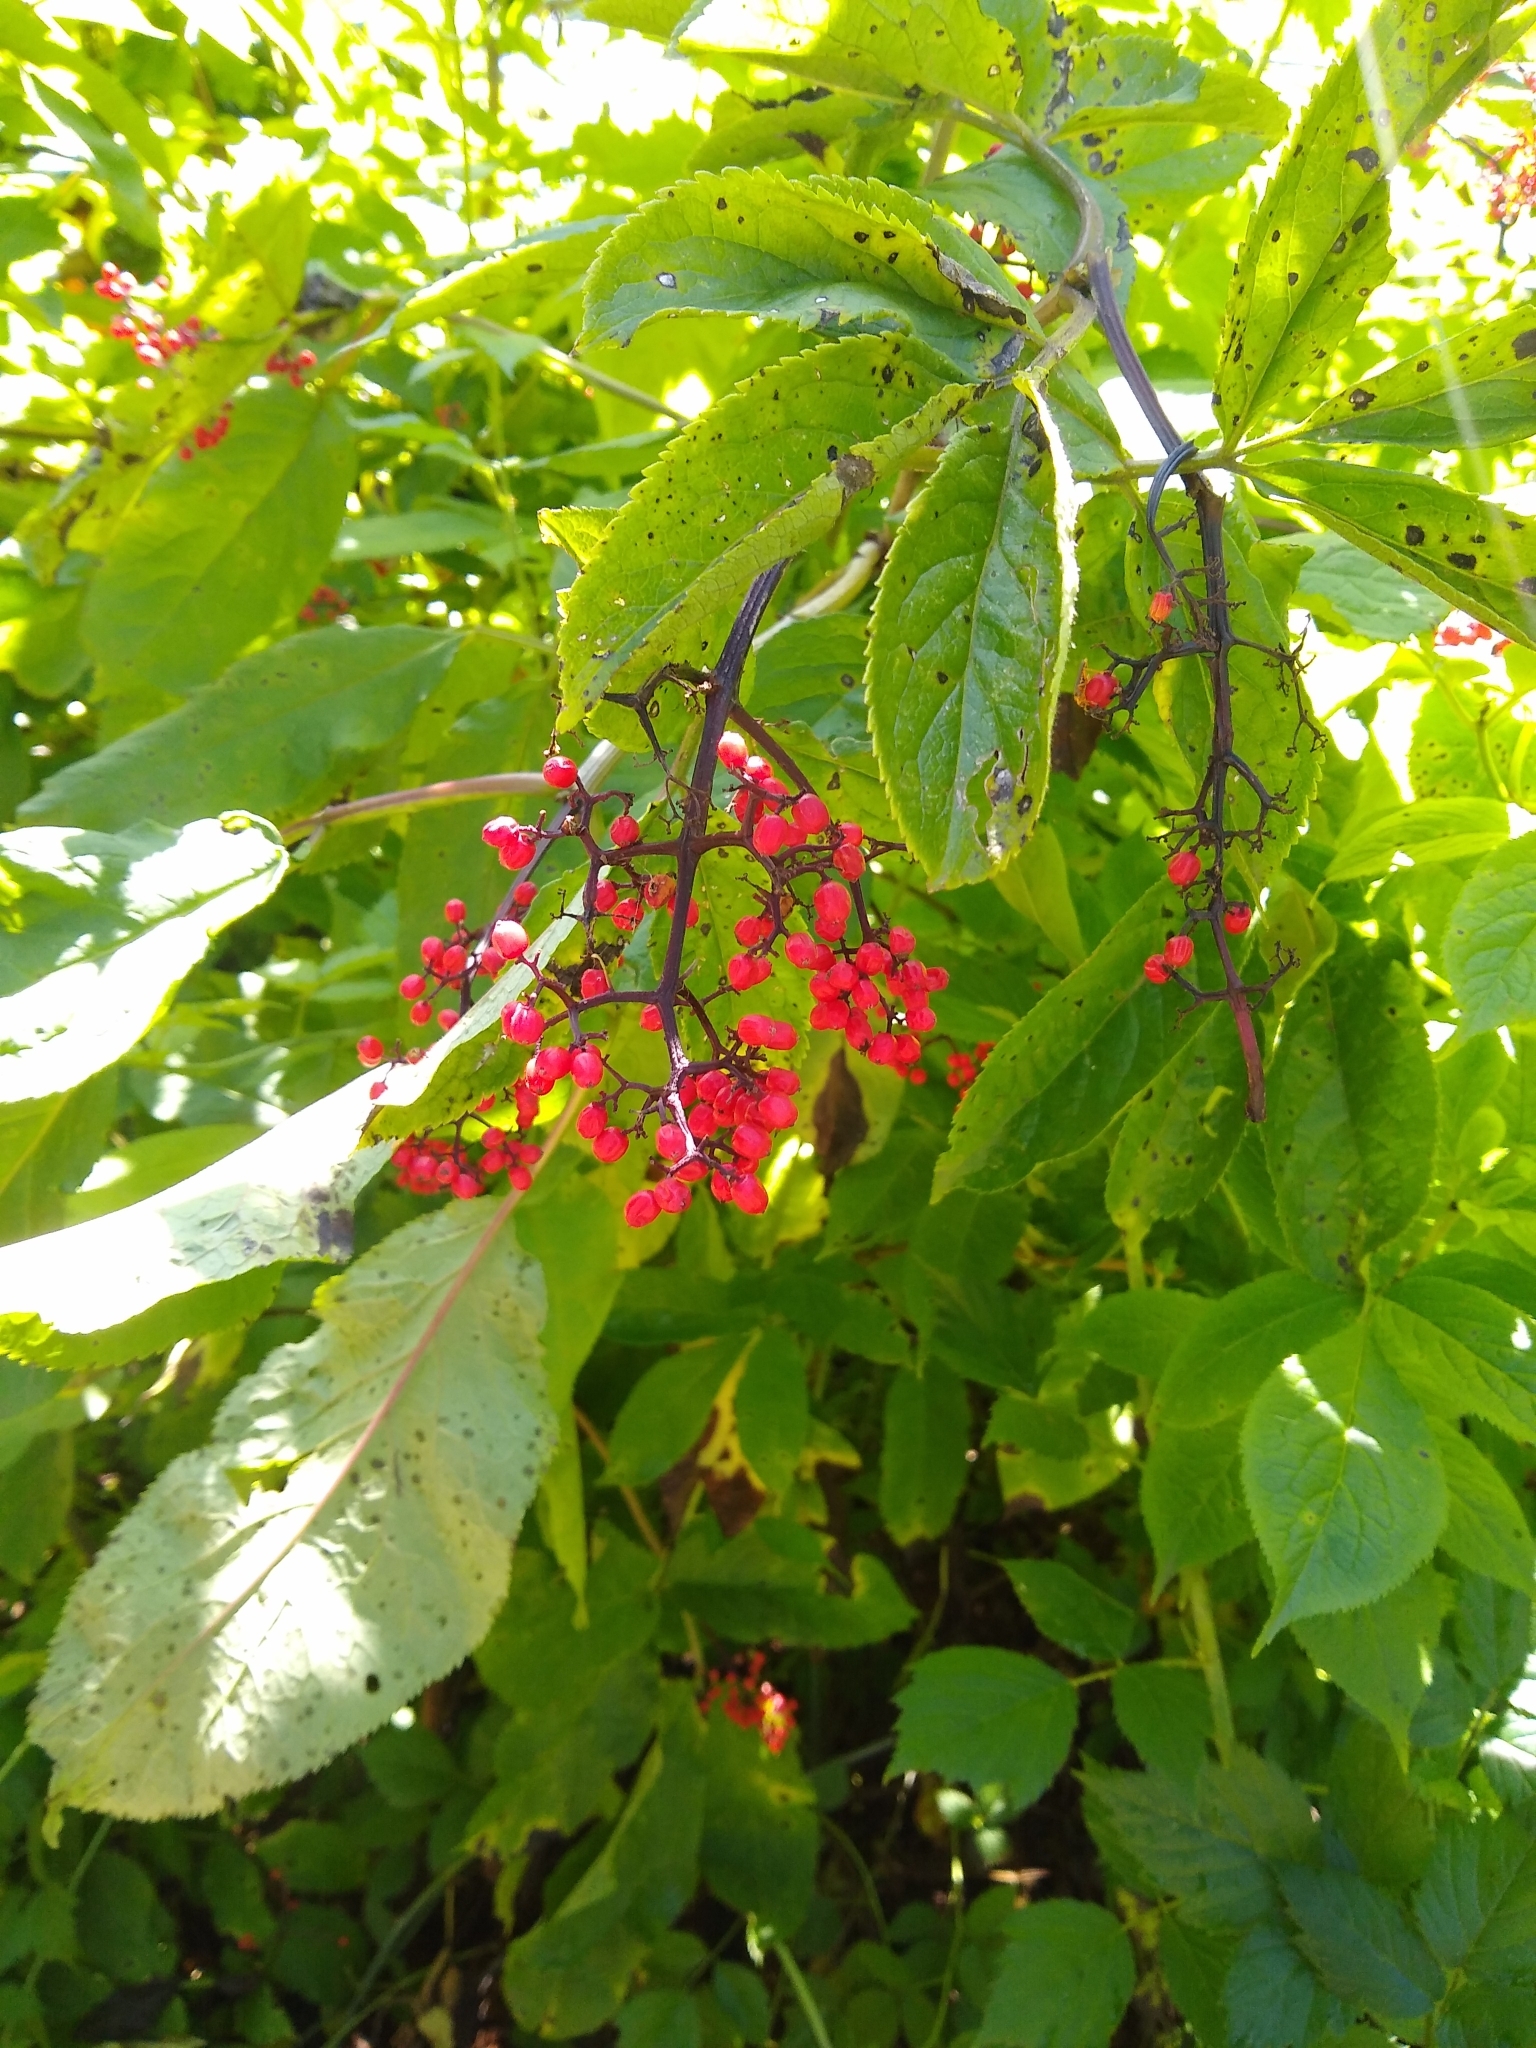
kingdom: Plantae
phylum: Tracheophyta
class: Magnoliopsida
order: Dipsacales
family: Viburnaceae
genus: Sambucus
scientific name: Sambucus racemosa
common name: Red-berried elder
